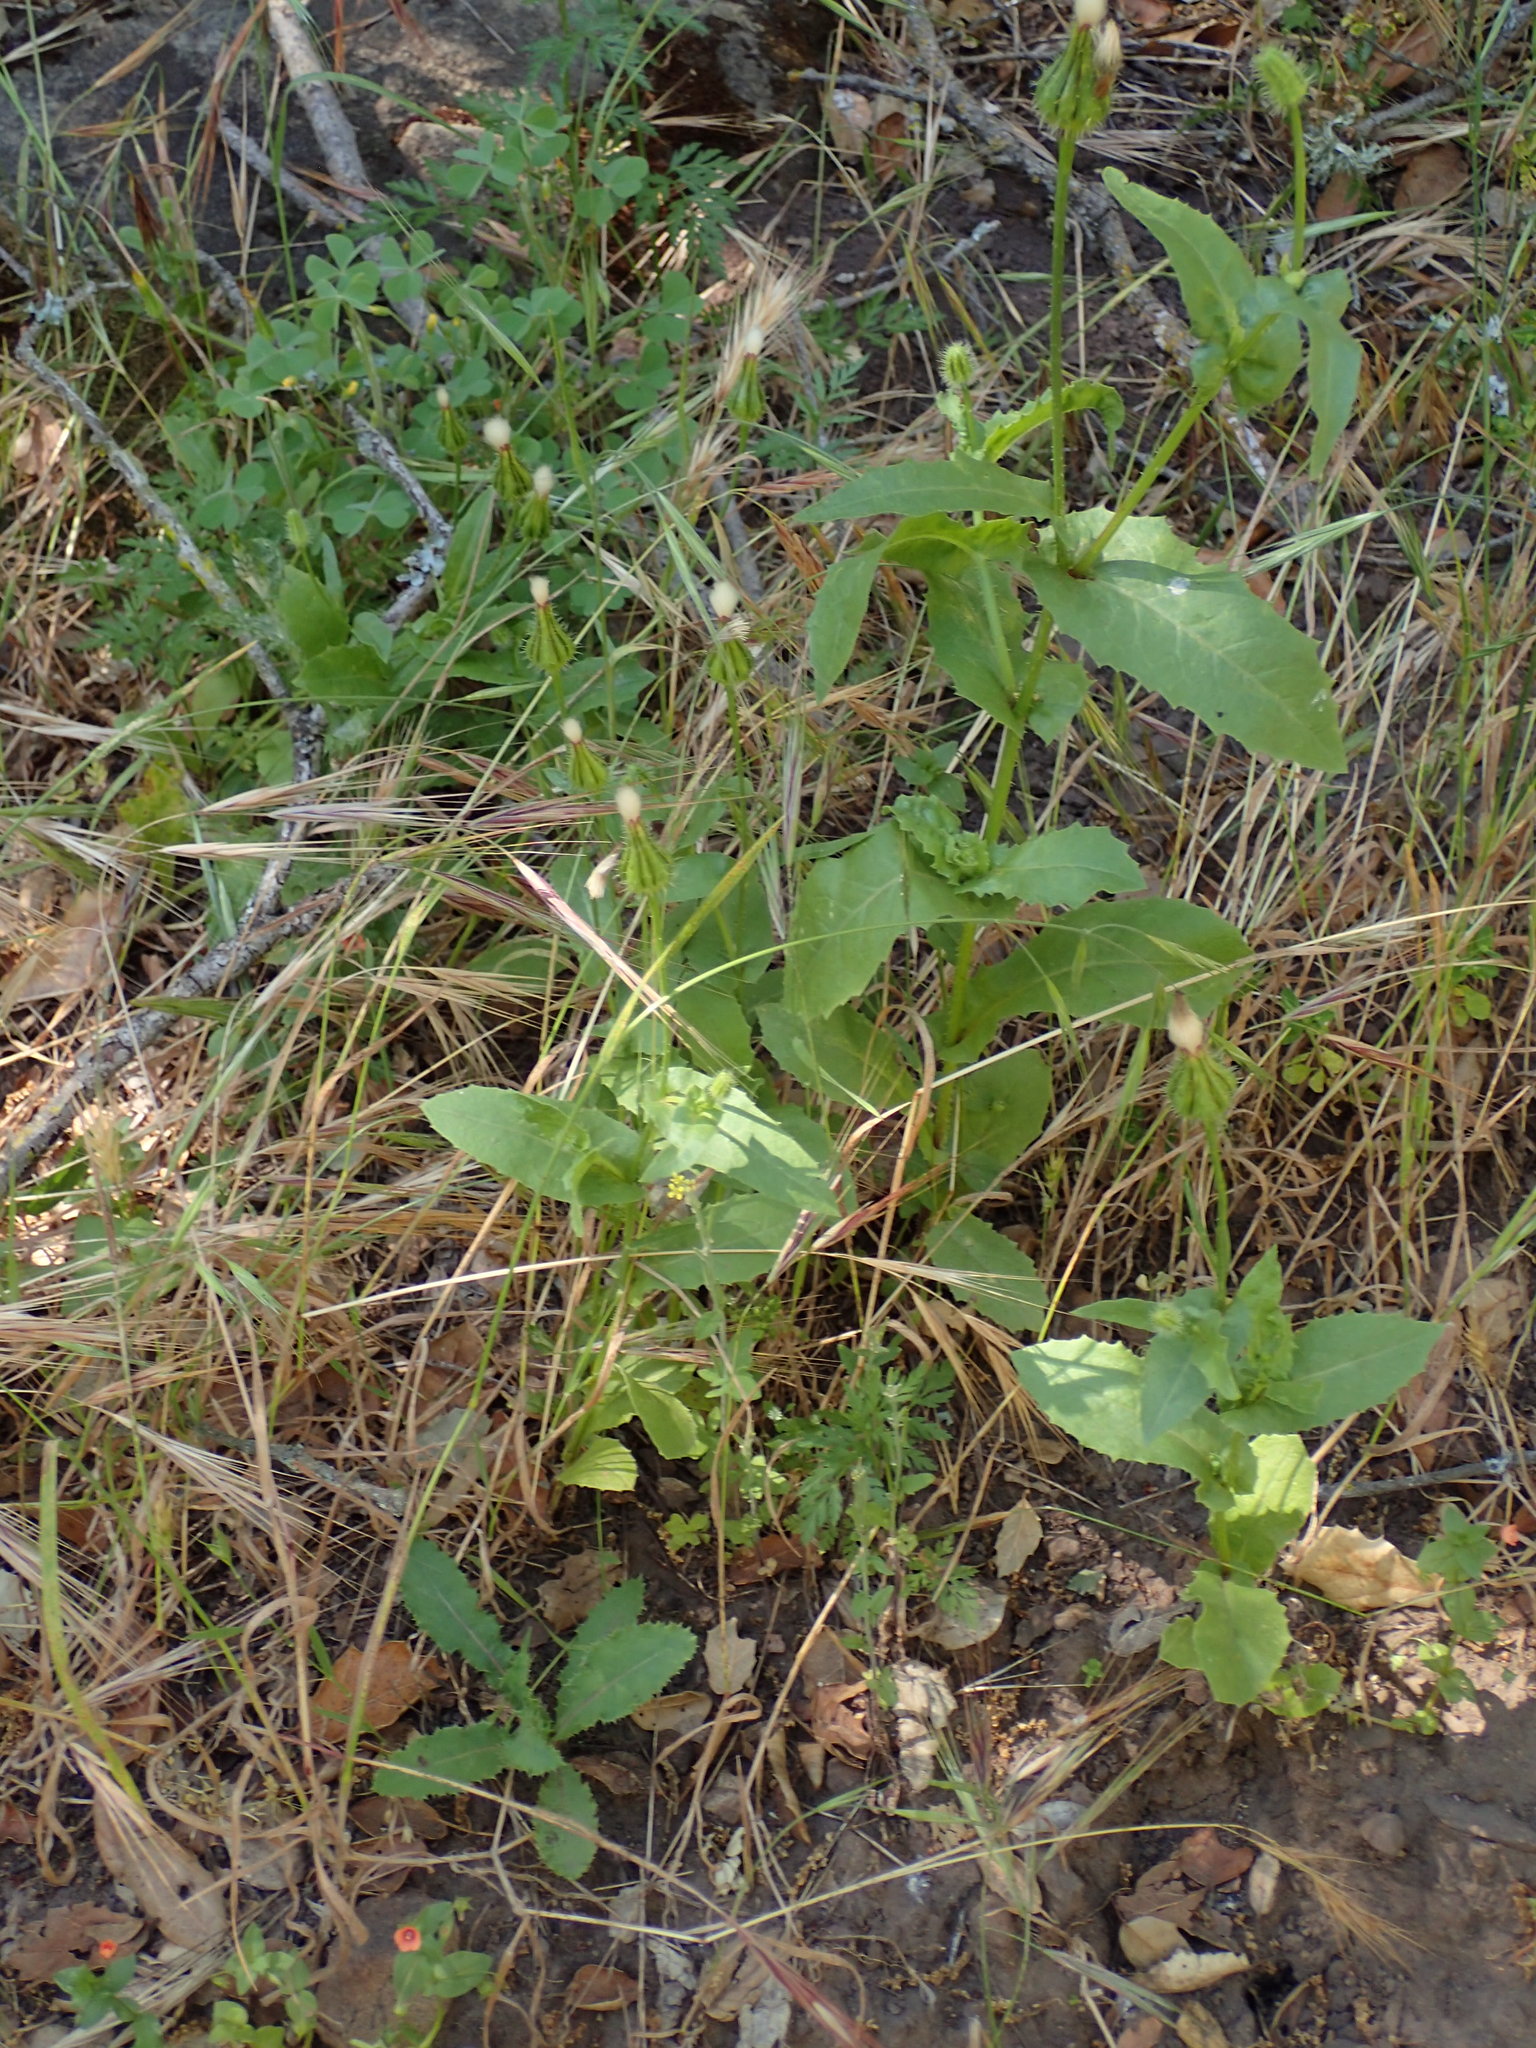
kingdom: Plantae
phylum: Tracheophyta
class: Magnoliopsida
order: Asterales
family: Asteraceae
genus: Urospermum
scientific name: Urospermum picroides
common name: False hawkbit
